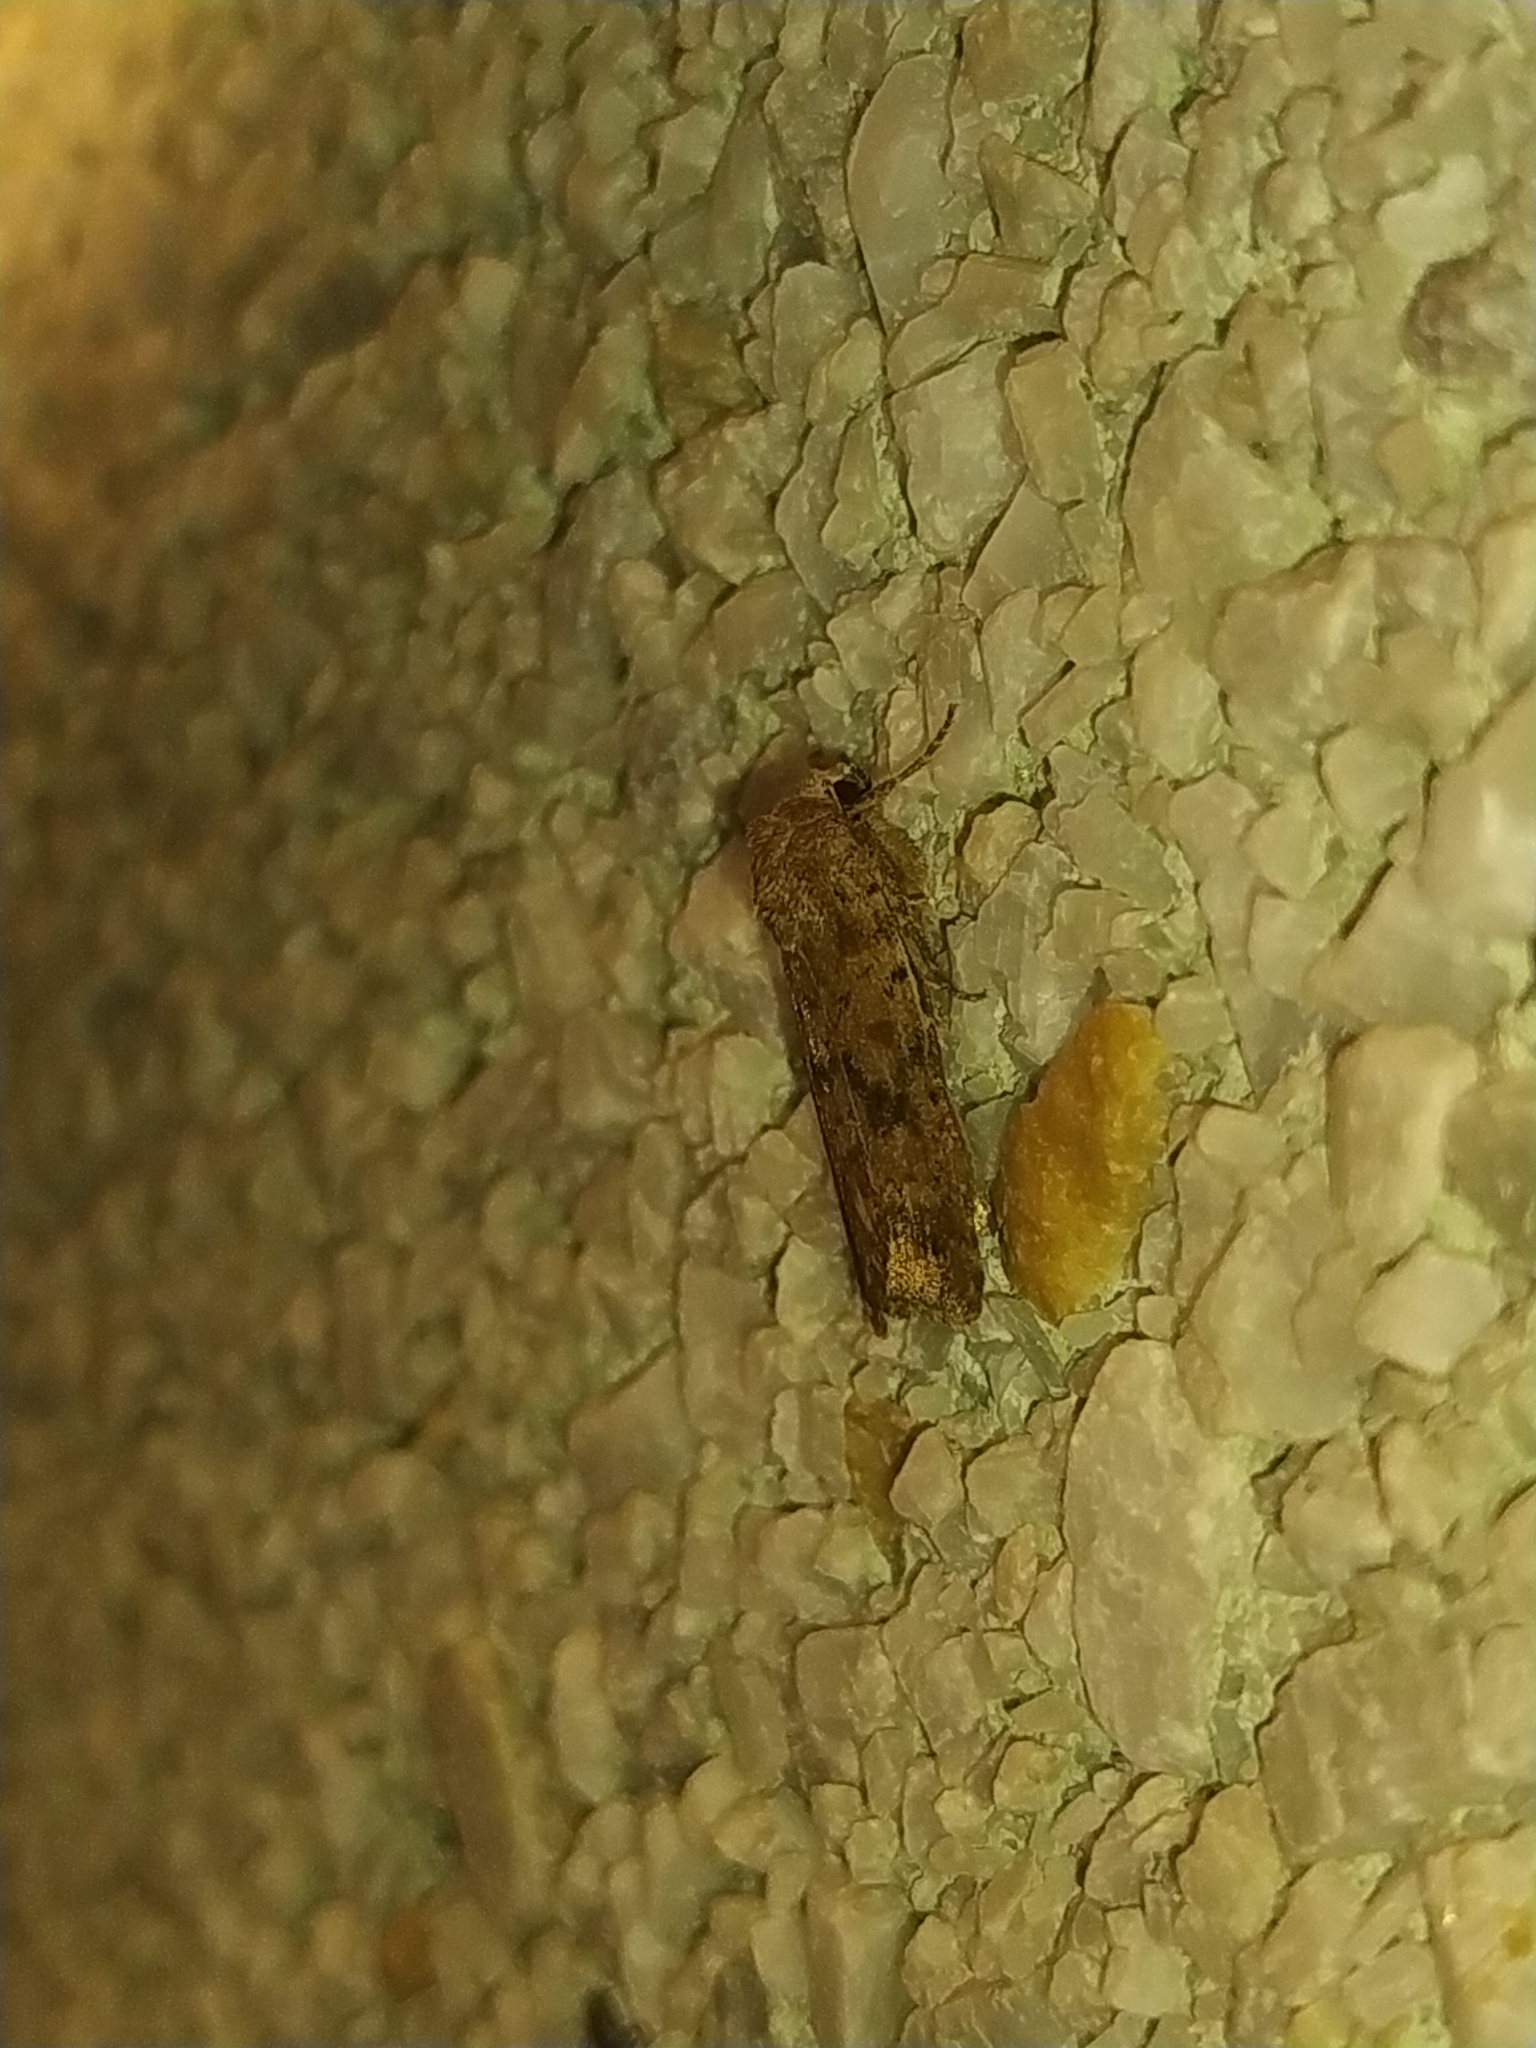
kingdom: Animalia
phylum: Arthropoda
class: Insecta
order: Lepidoptera
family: Noctuidae
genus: Caradrina
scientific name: Caradrina morpheus
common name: Mottled rustic
